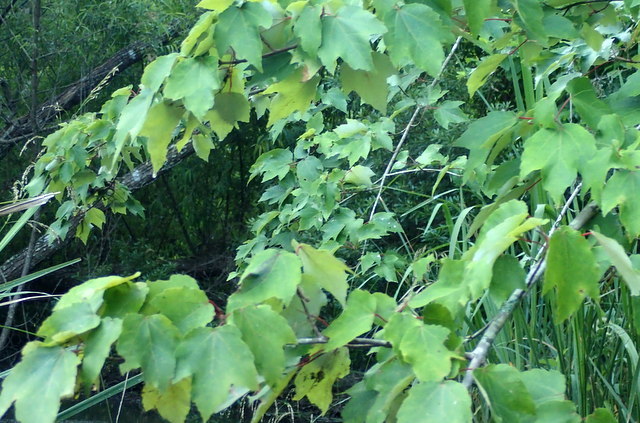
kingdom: Plantae
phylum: Tracheophyta
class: Magnoliopsida
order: Sapindales
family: Sapindaceae
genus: Acer
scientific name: Acer rubrum
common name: Red maple
